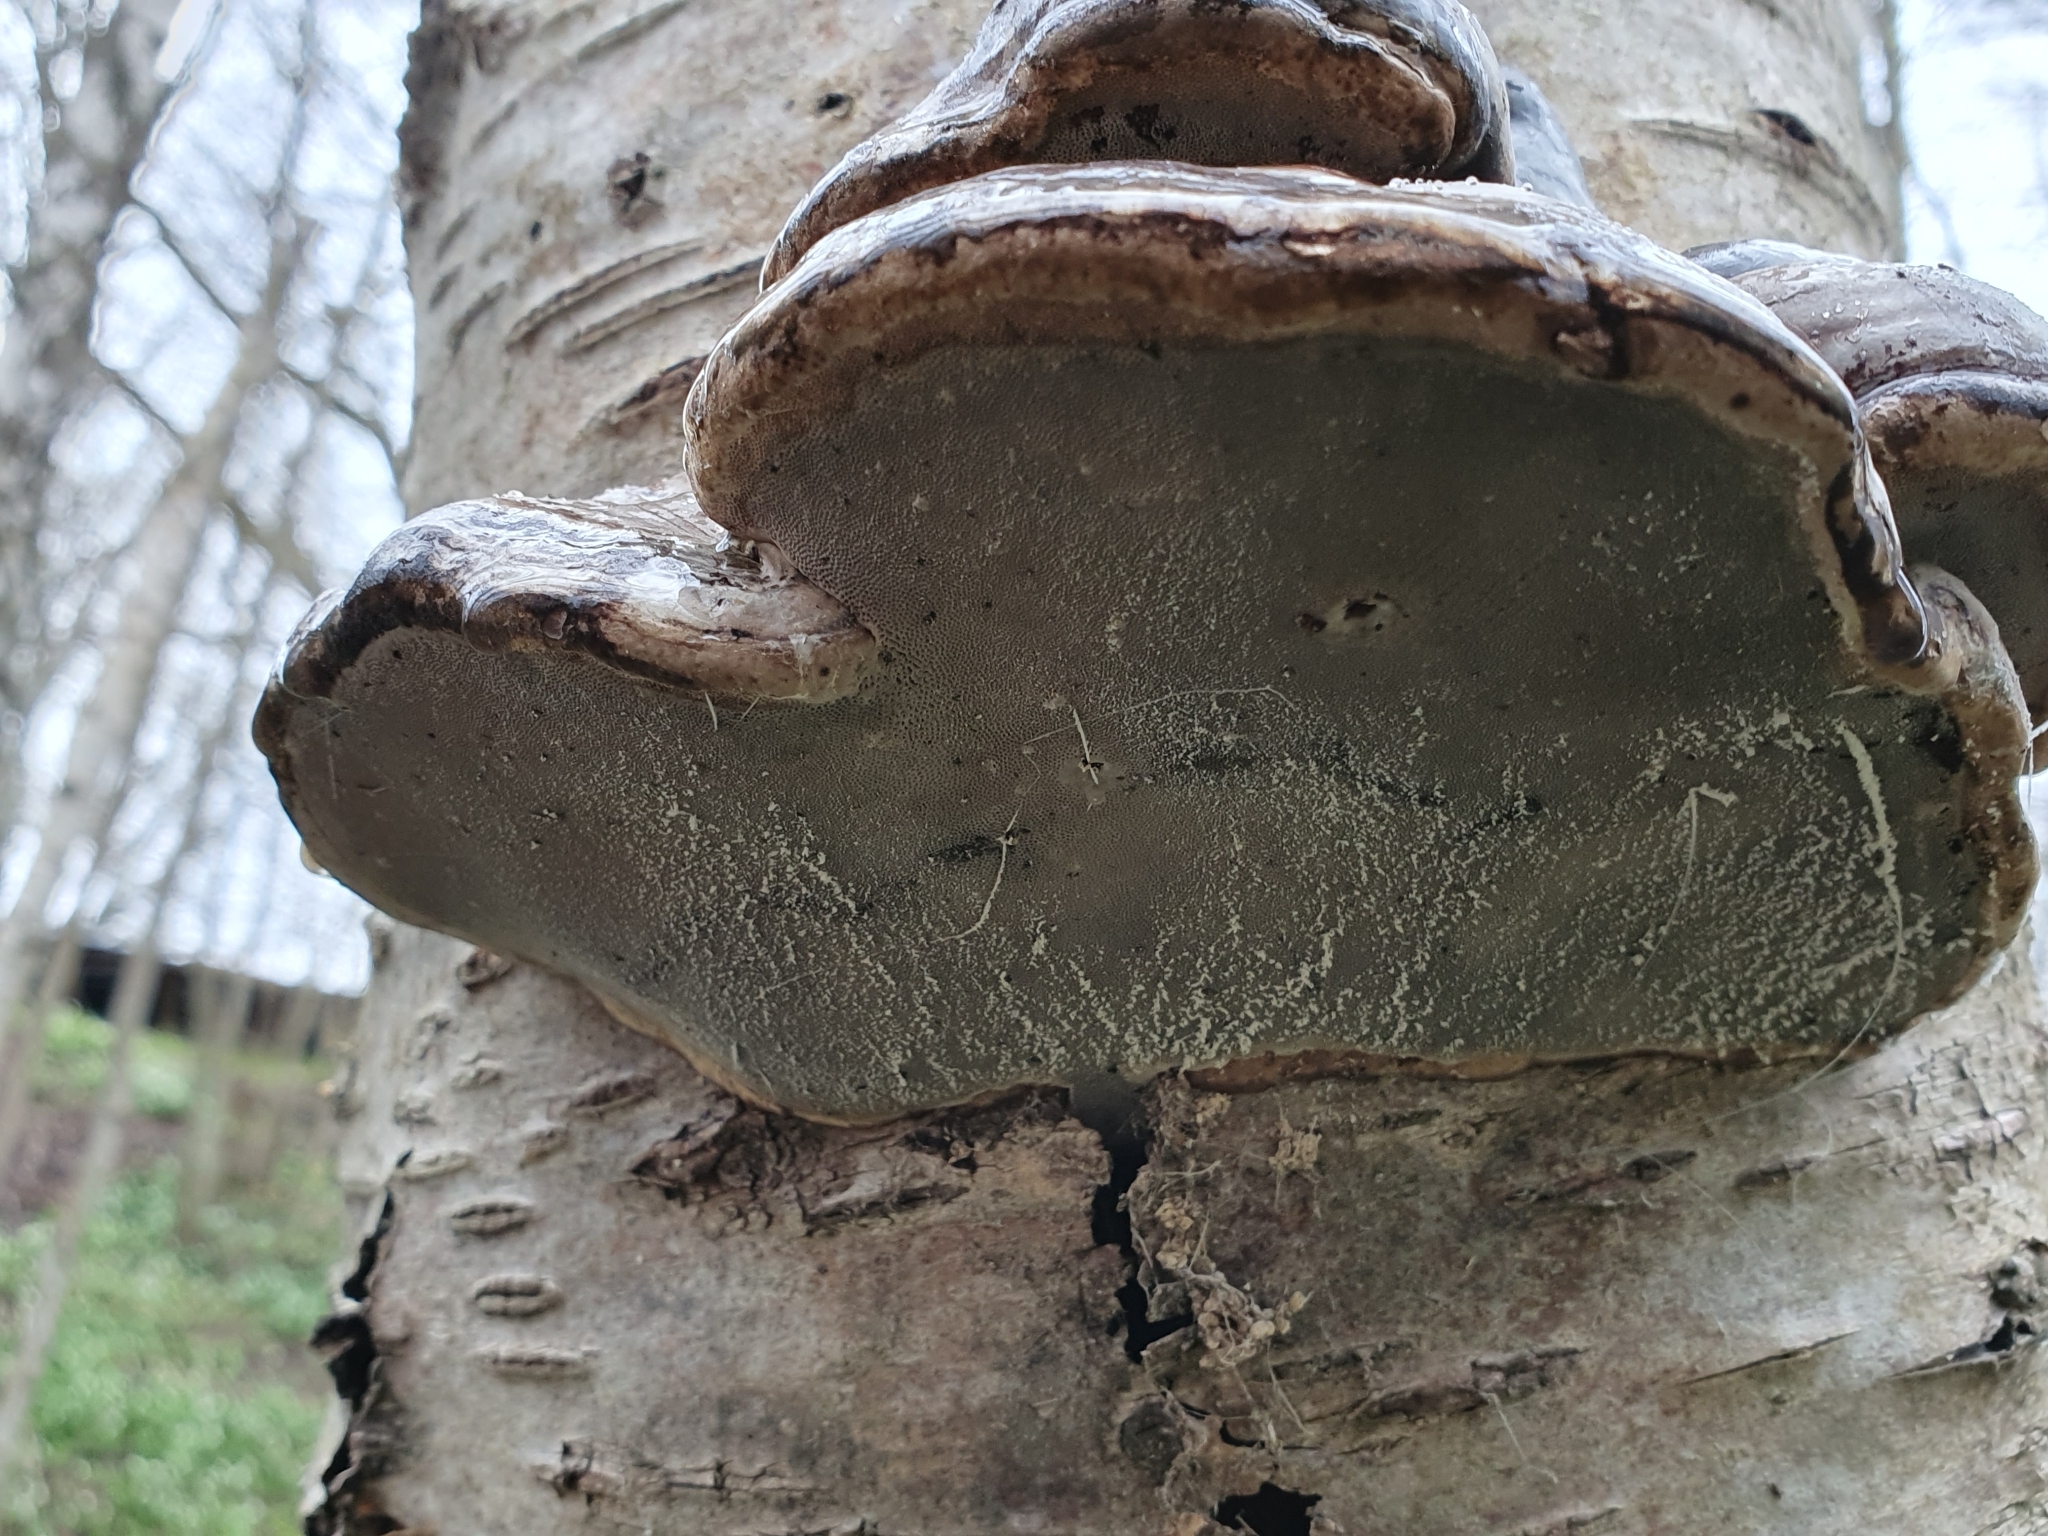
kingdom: Fungi
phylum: Basidiomycota
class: Agaricomycetes
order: Polyporales
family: Polyporaceae
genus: Fomes
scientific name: Fomes fomentarius
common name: Hoof fungus
